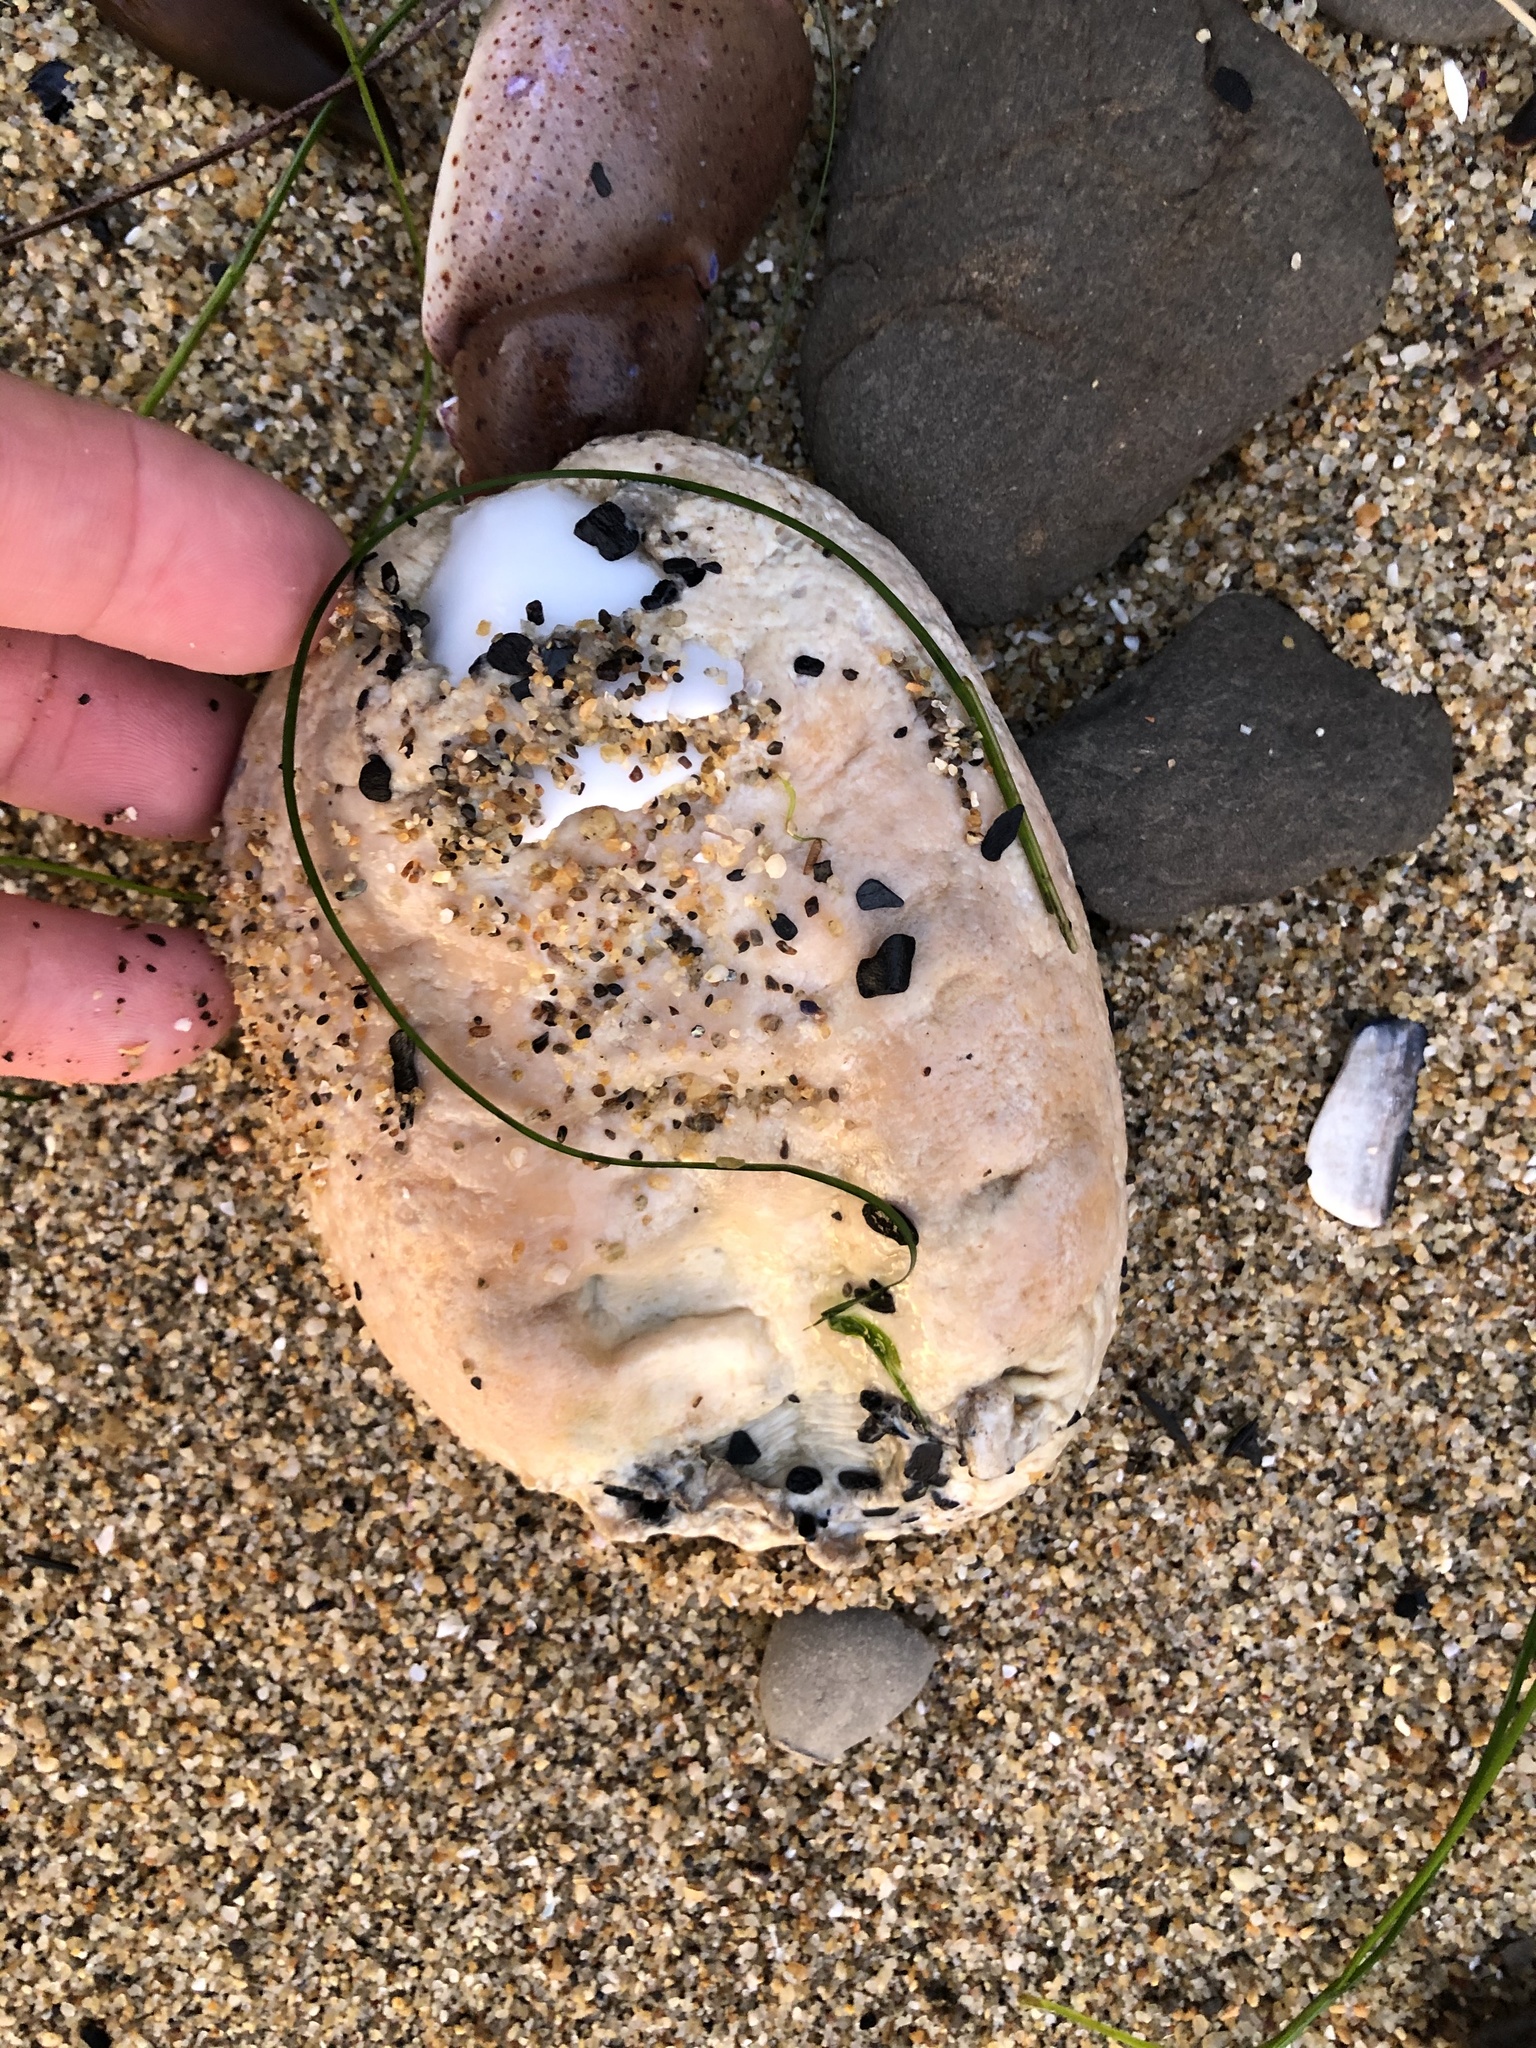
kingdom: Animalia
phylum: Mollusca
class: Polyplacophora
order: Chitonida
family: Acanthochitonidae
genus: Cryptochiton
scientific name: Cryptochiton stelleri
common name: Giant pacific chiton
